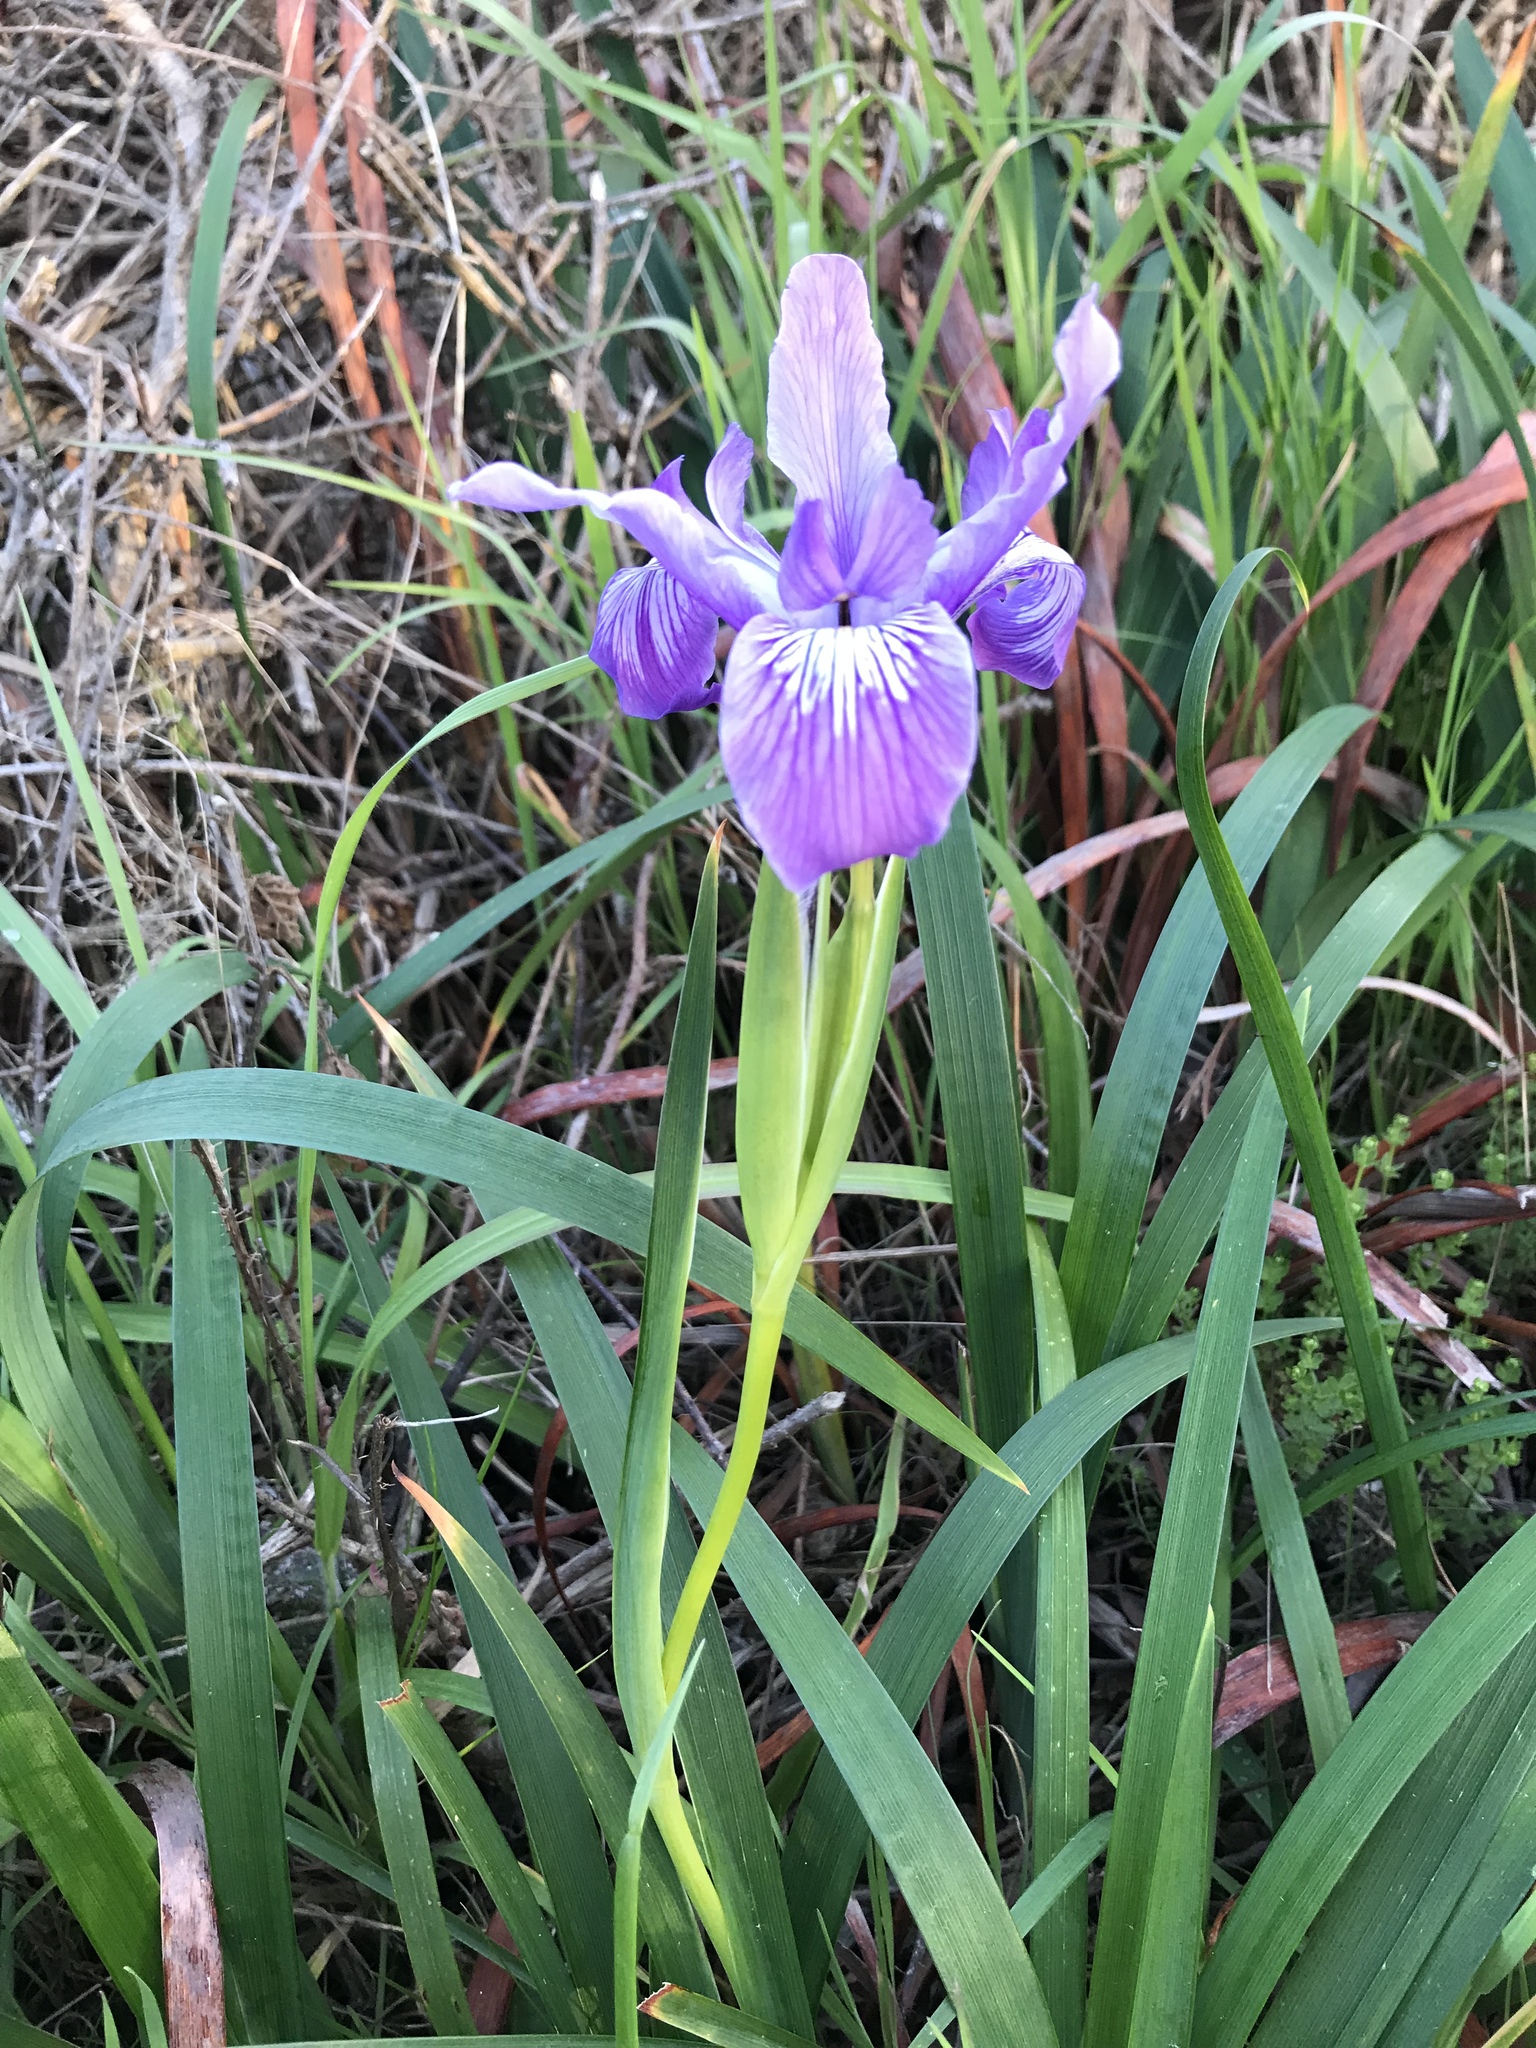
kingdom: Plantae
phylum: Tracheophyta
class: Liliopsida
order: Asparagales
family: Iridaceae
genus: Iris
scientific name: Iris douglasiana
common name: Marin iris
